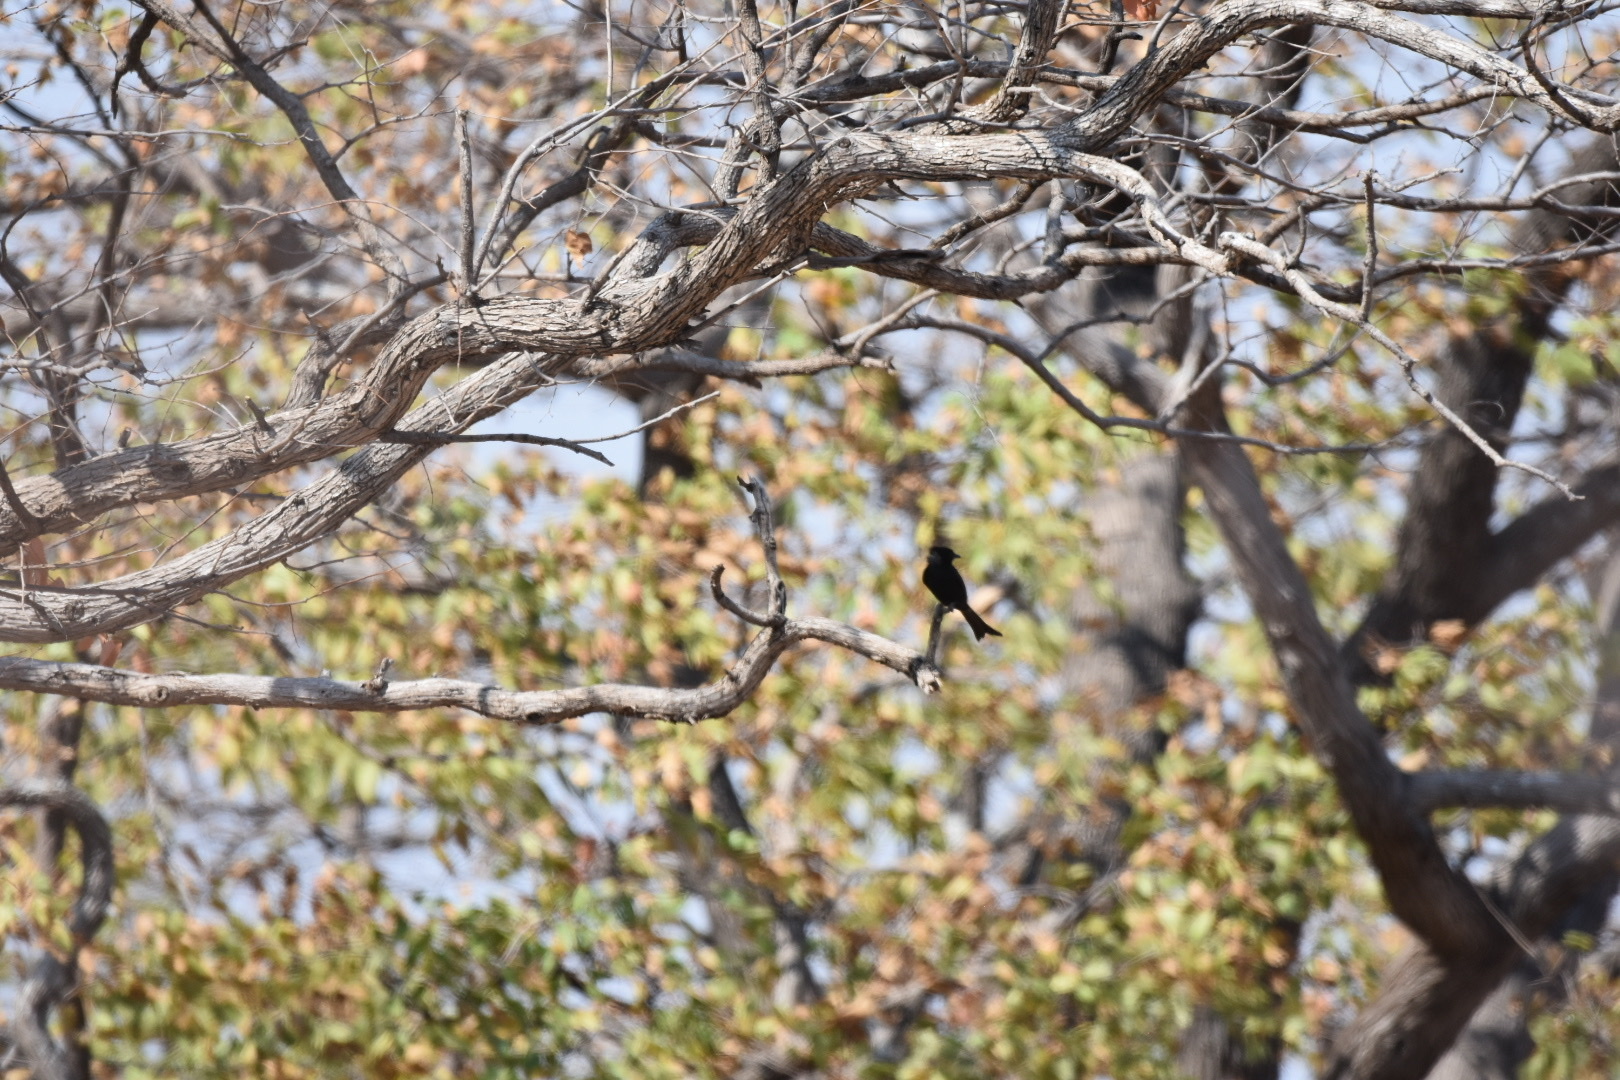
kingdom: Animalia
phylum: Chordata
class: Aves
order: Passeriformes
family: Dicruridae
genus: Dicrurus
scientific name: Dicrurus adsimilis
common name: Fork-tailed drongo
